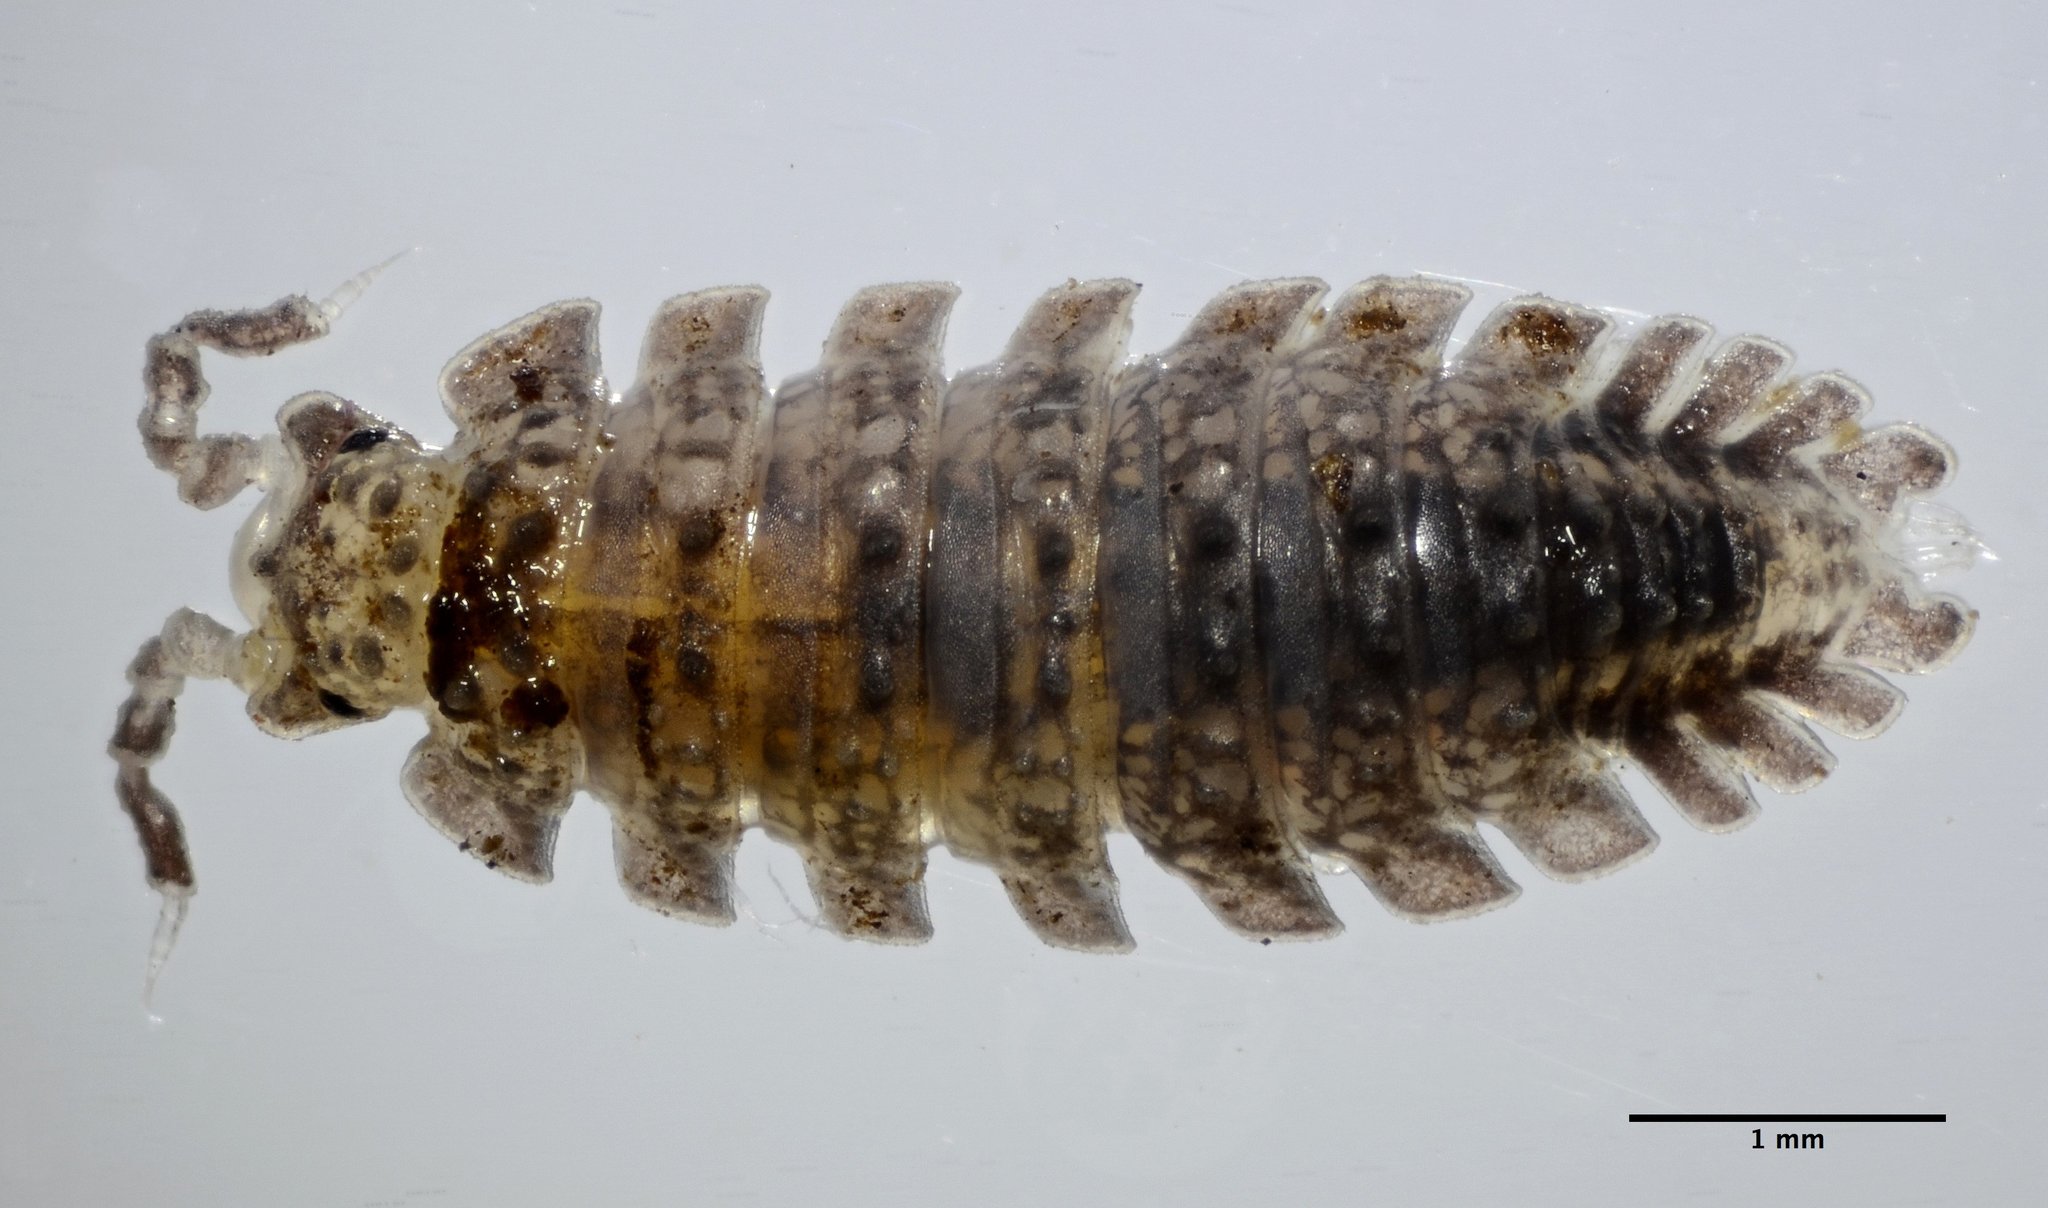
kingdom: Animalia
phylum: Arthropoda
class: Malacostraca
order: Isopoda
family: Detonidae
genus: Armadilloniscus
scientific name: Armadilloniscus coronacapitalis
